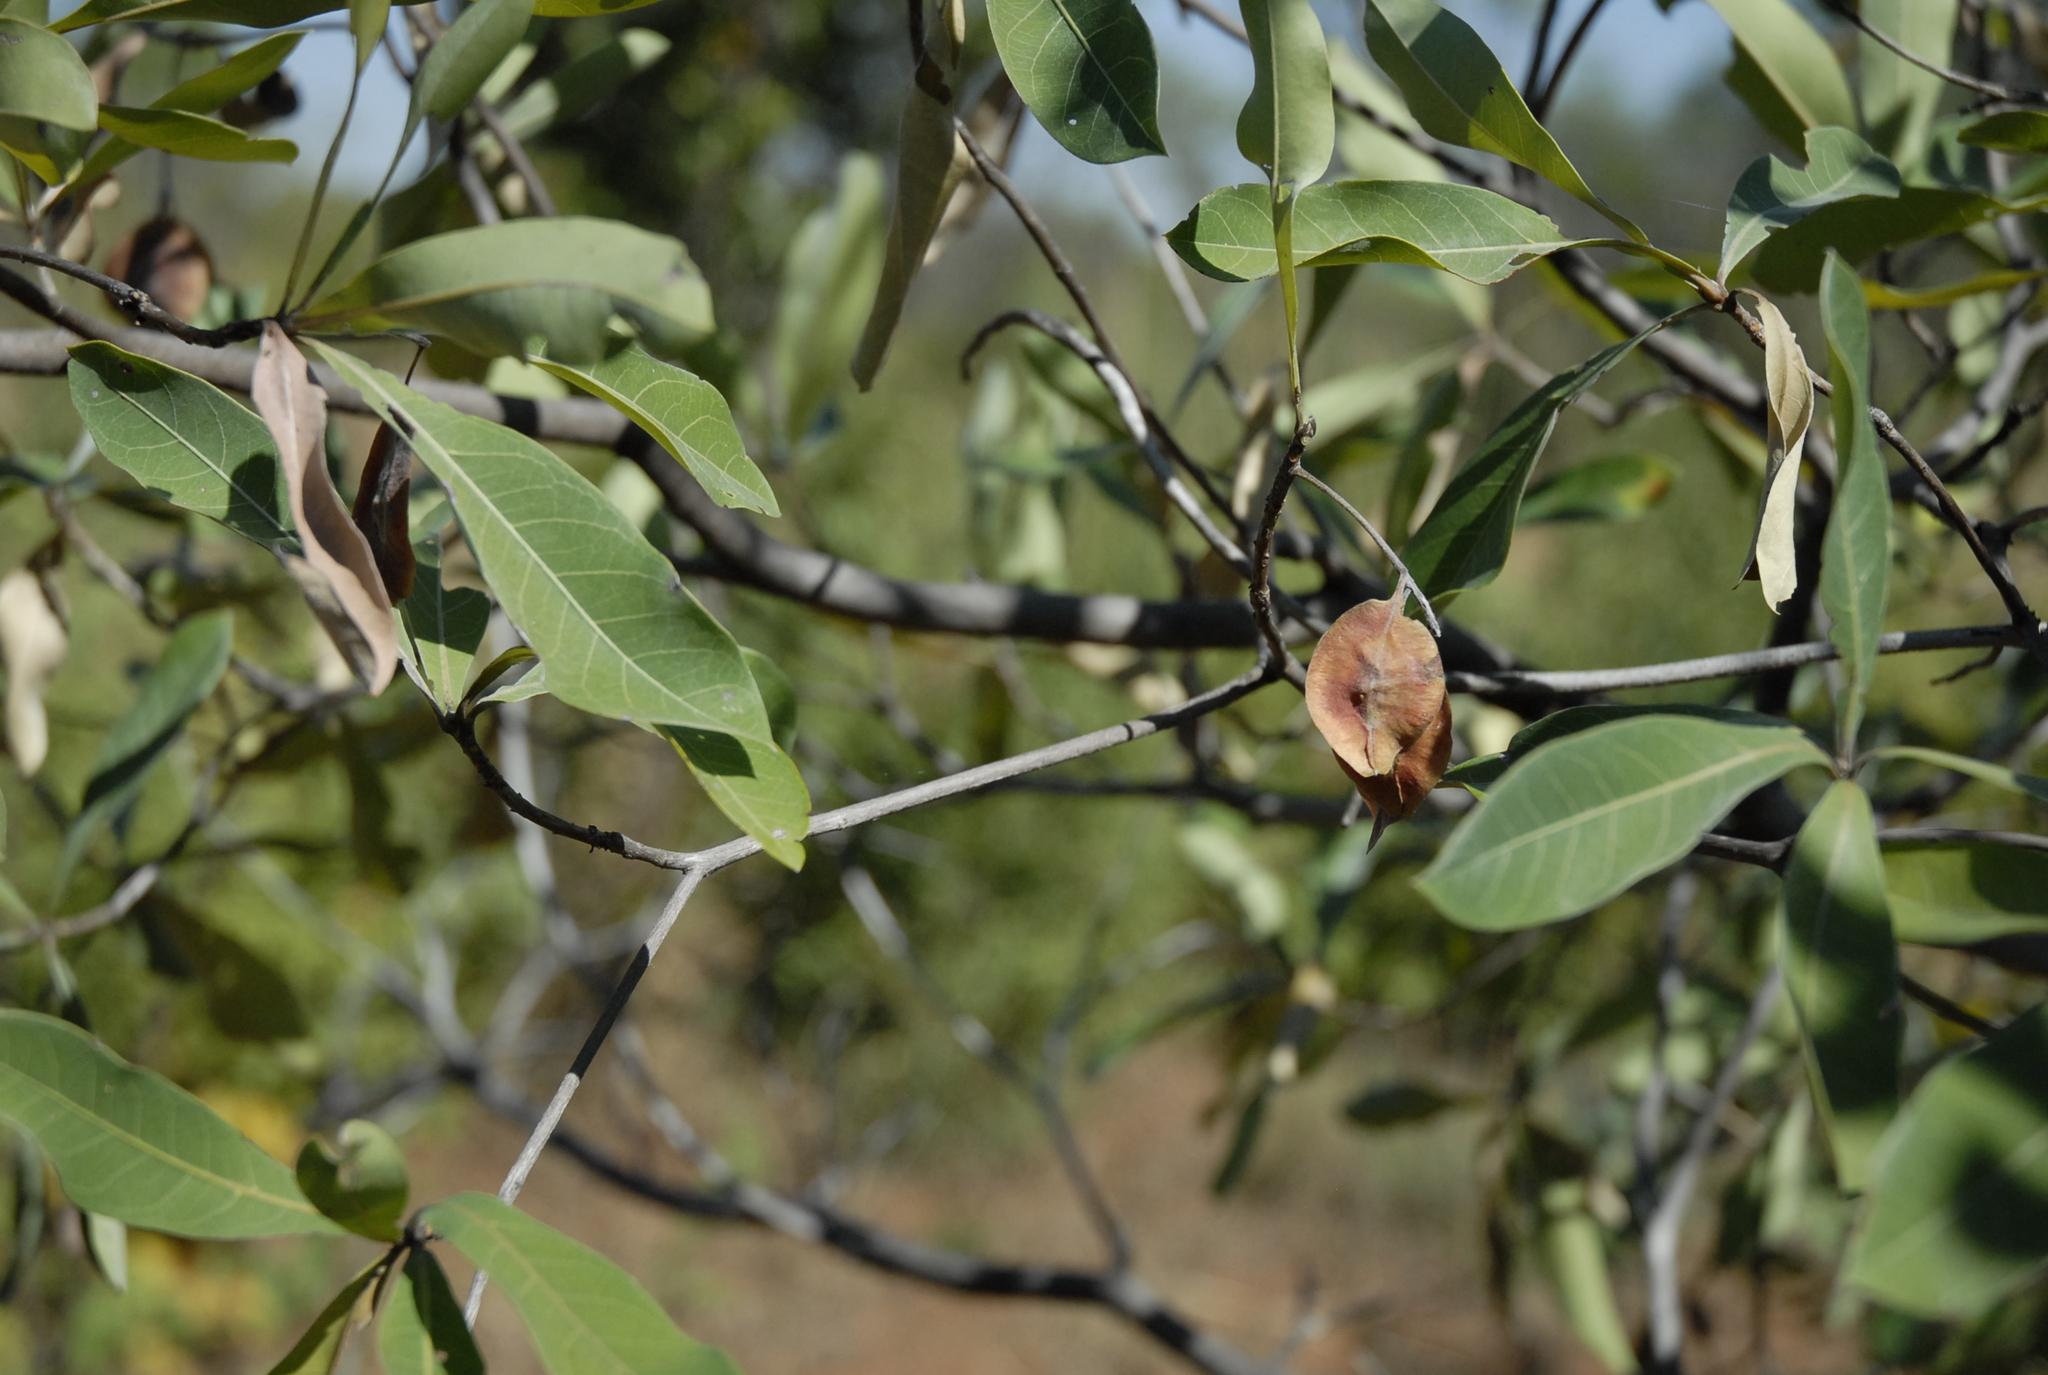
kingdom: Plantae
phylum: Tracheophyta
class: Magnoliopsida
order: Myrtales
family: Combretaceae
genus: Terminalia
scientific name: Terminalia sericea
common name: Clusterleaf
